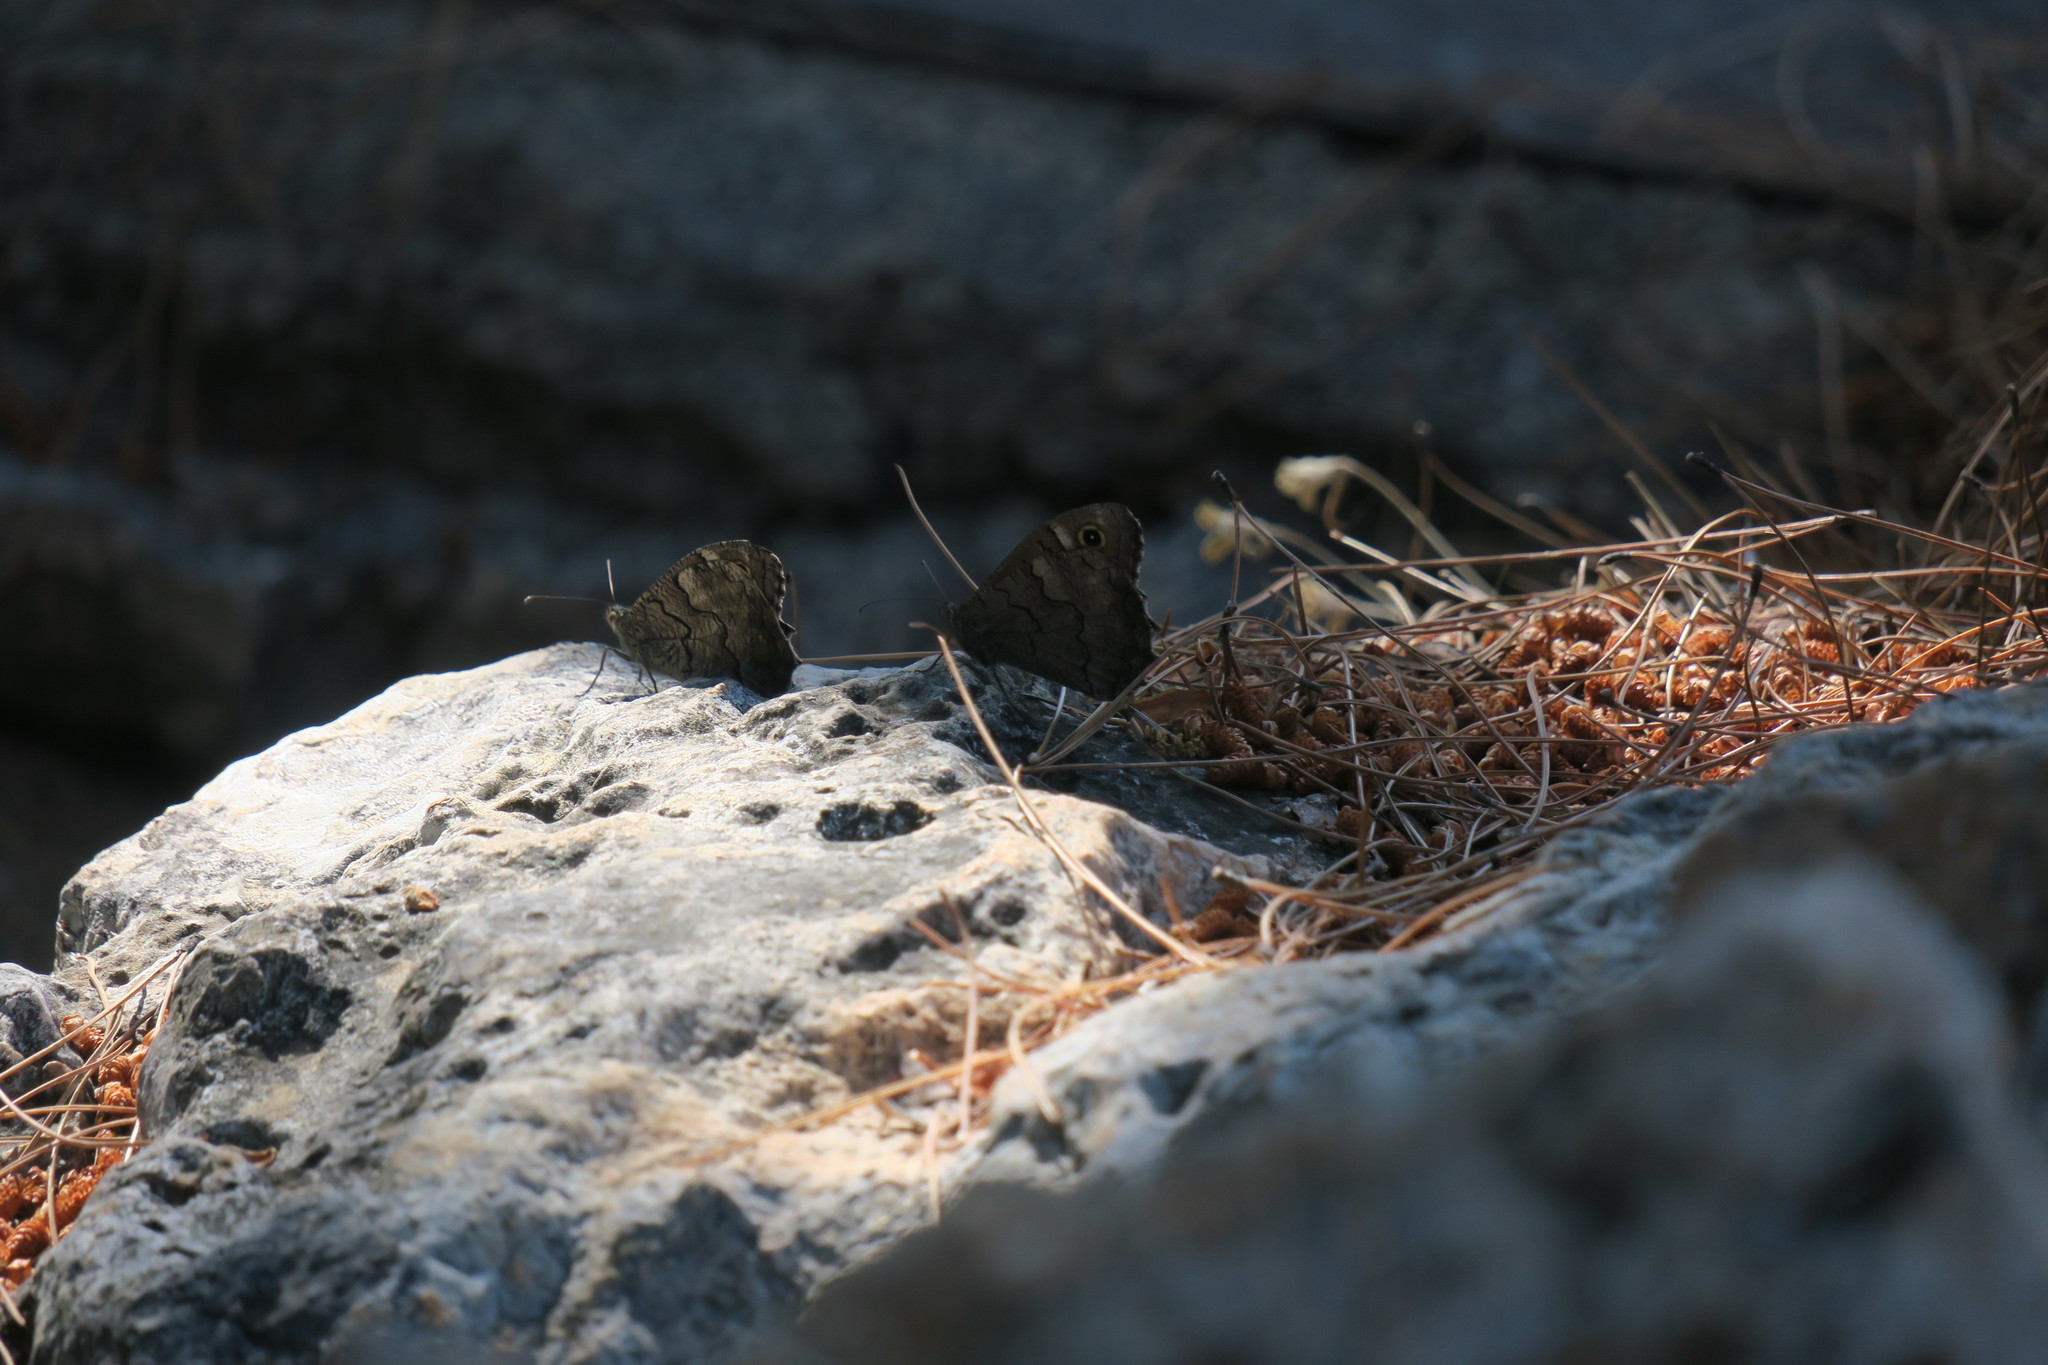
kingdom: Animalia
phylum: Arthropoda
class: Insecta
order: Lepidoptera
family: Nymphalidae
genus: Hipparchia
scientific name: Hipparchia fatua
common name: Freyer's grayling
